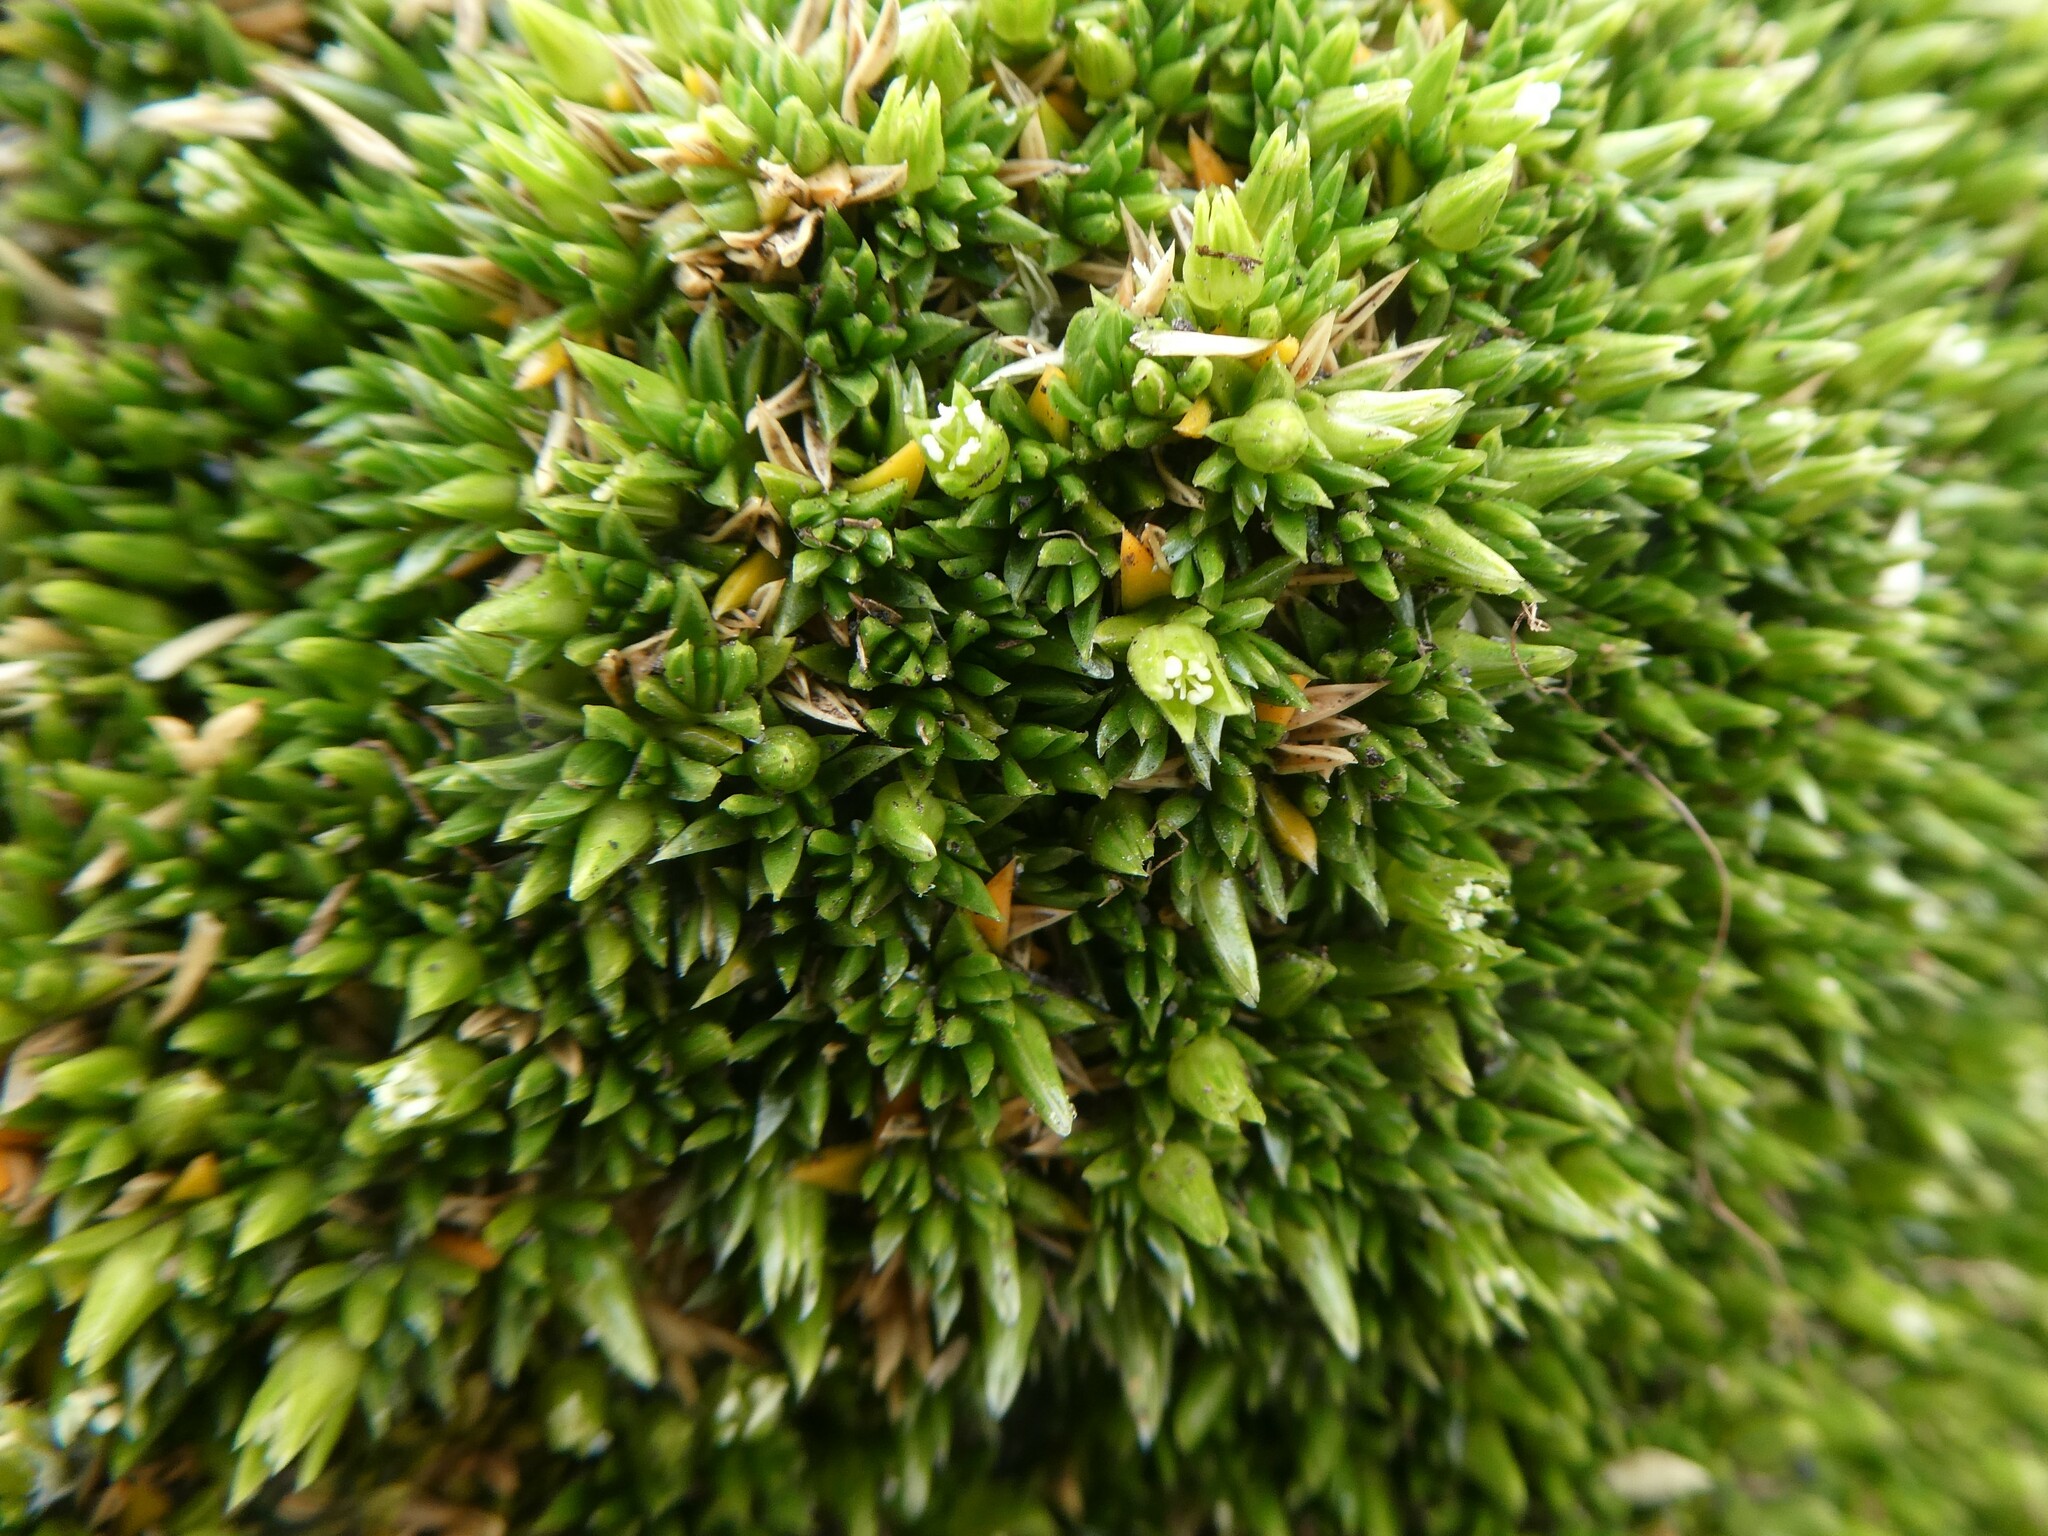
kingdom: Plantae
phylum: Tracheophyta
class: Magnoliopsida
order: Caryophyllales
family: Caryophyllaceae
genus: Colobanthus
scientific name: Colobanthus subulatus
